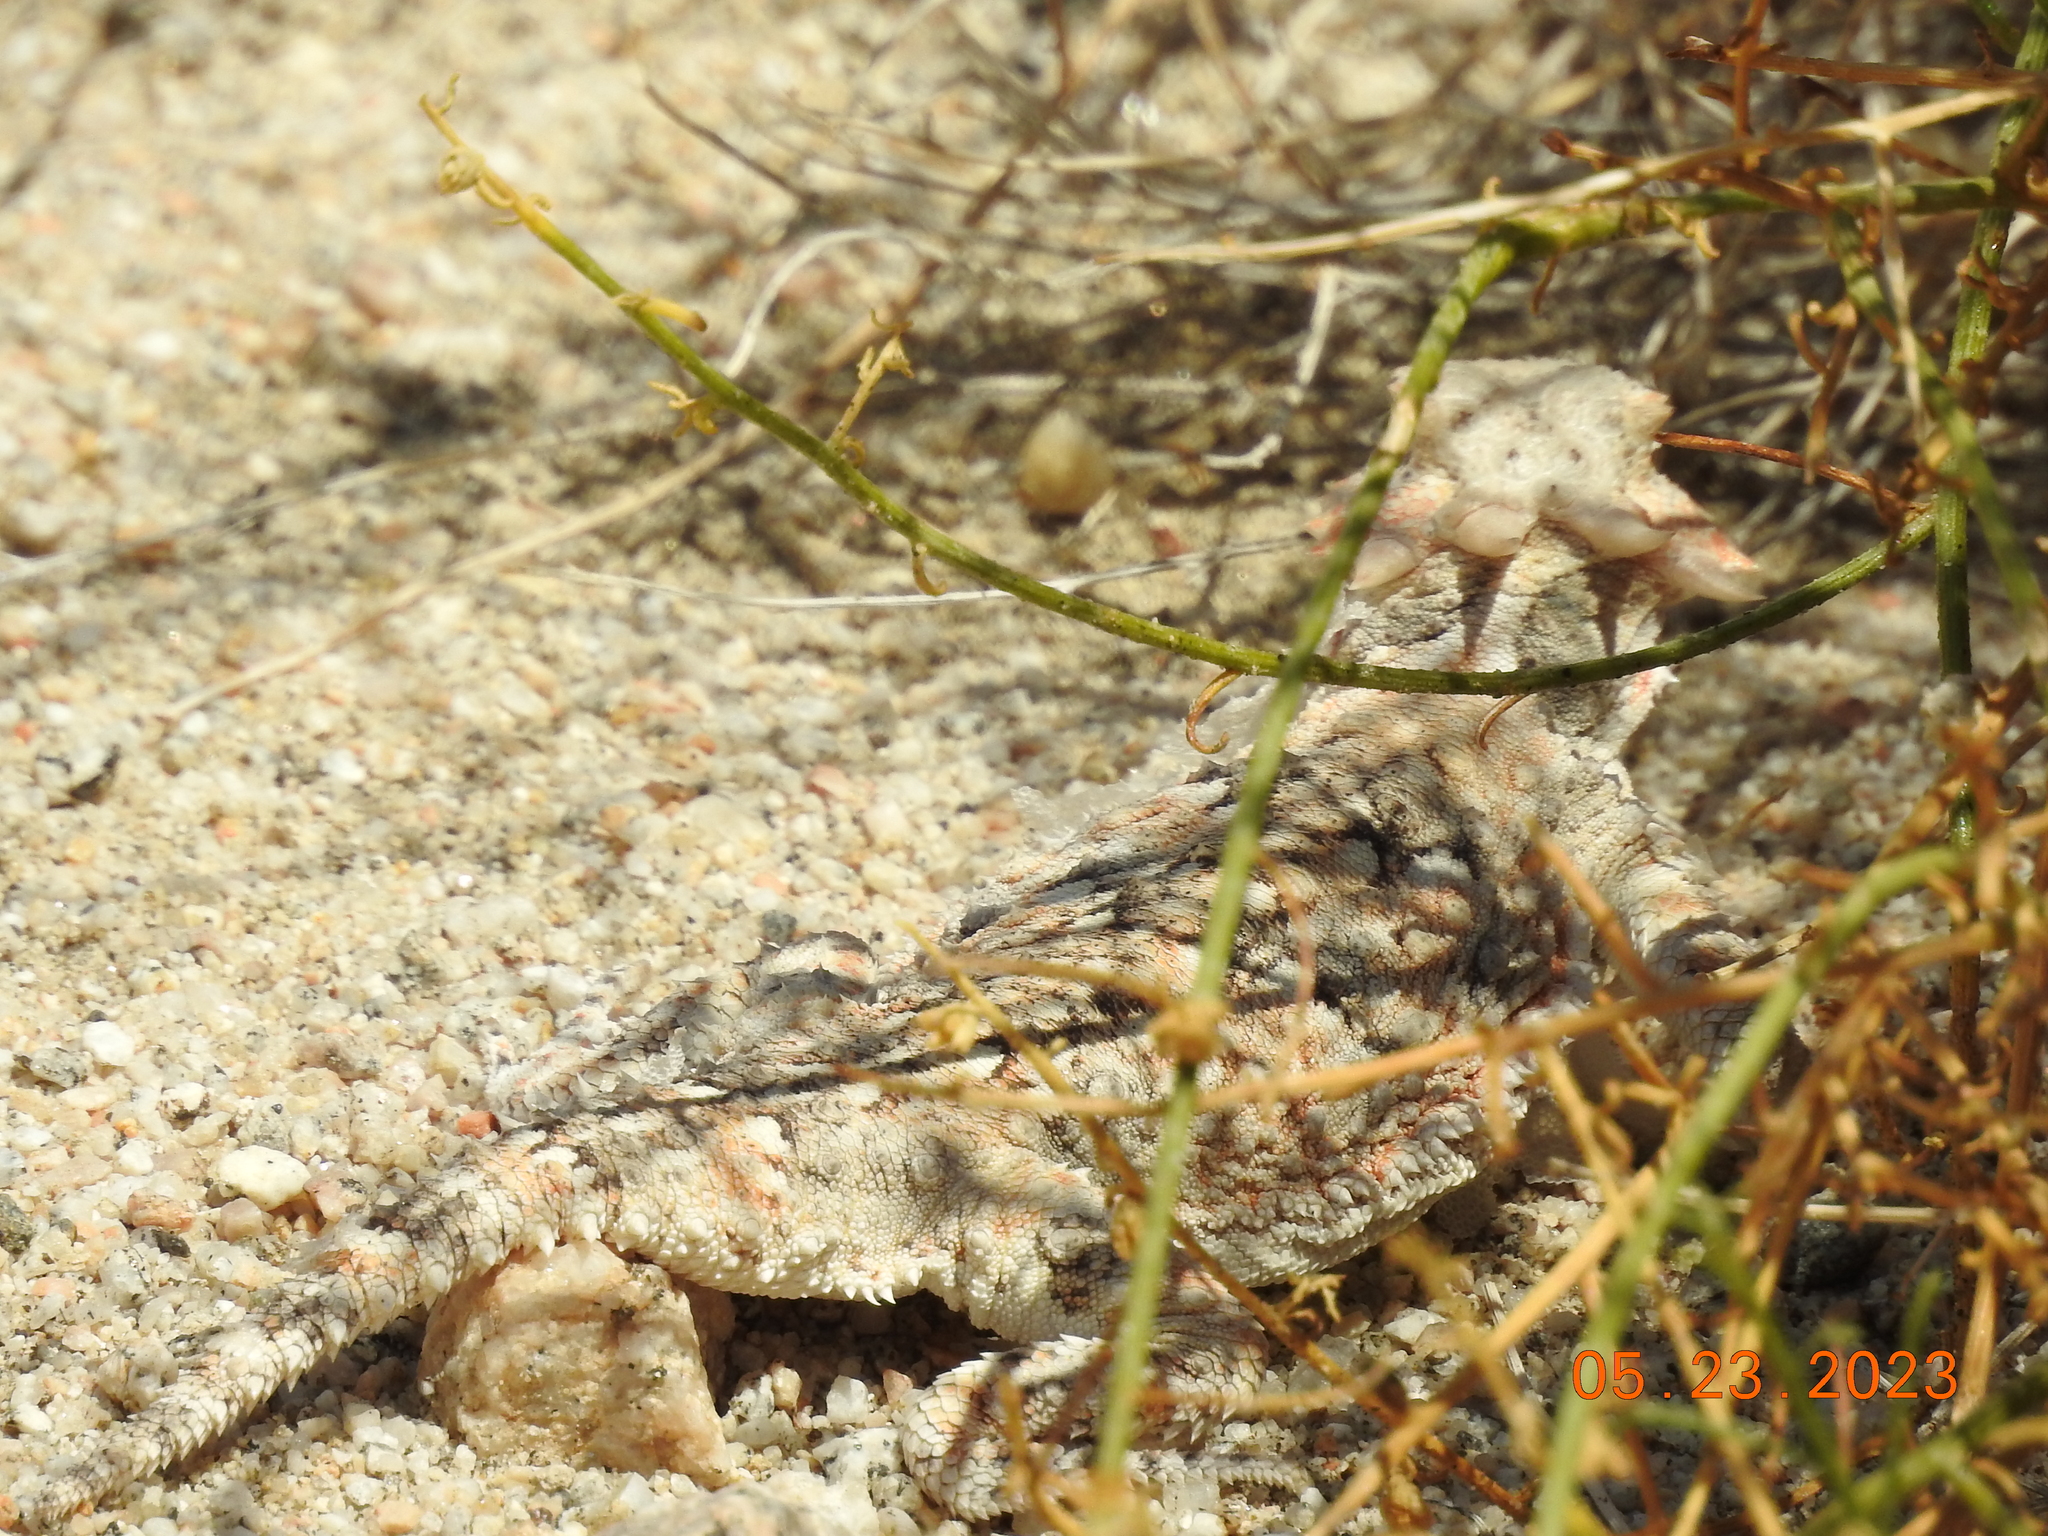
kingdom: Animalia
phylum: Chordata
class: Squamata
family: Phrynosomatidae
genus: Phrynosoma
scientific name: Phrynosoma platyrhinos
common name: Desert horned lizard
